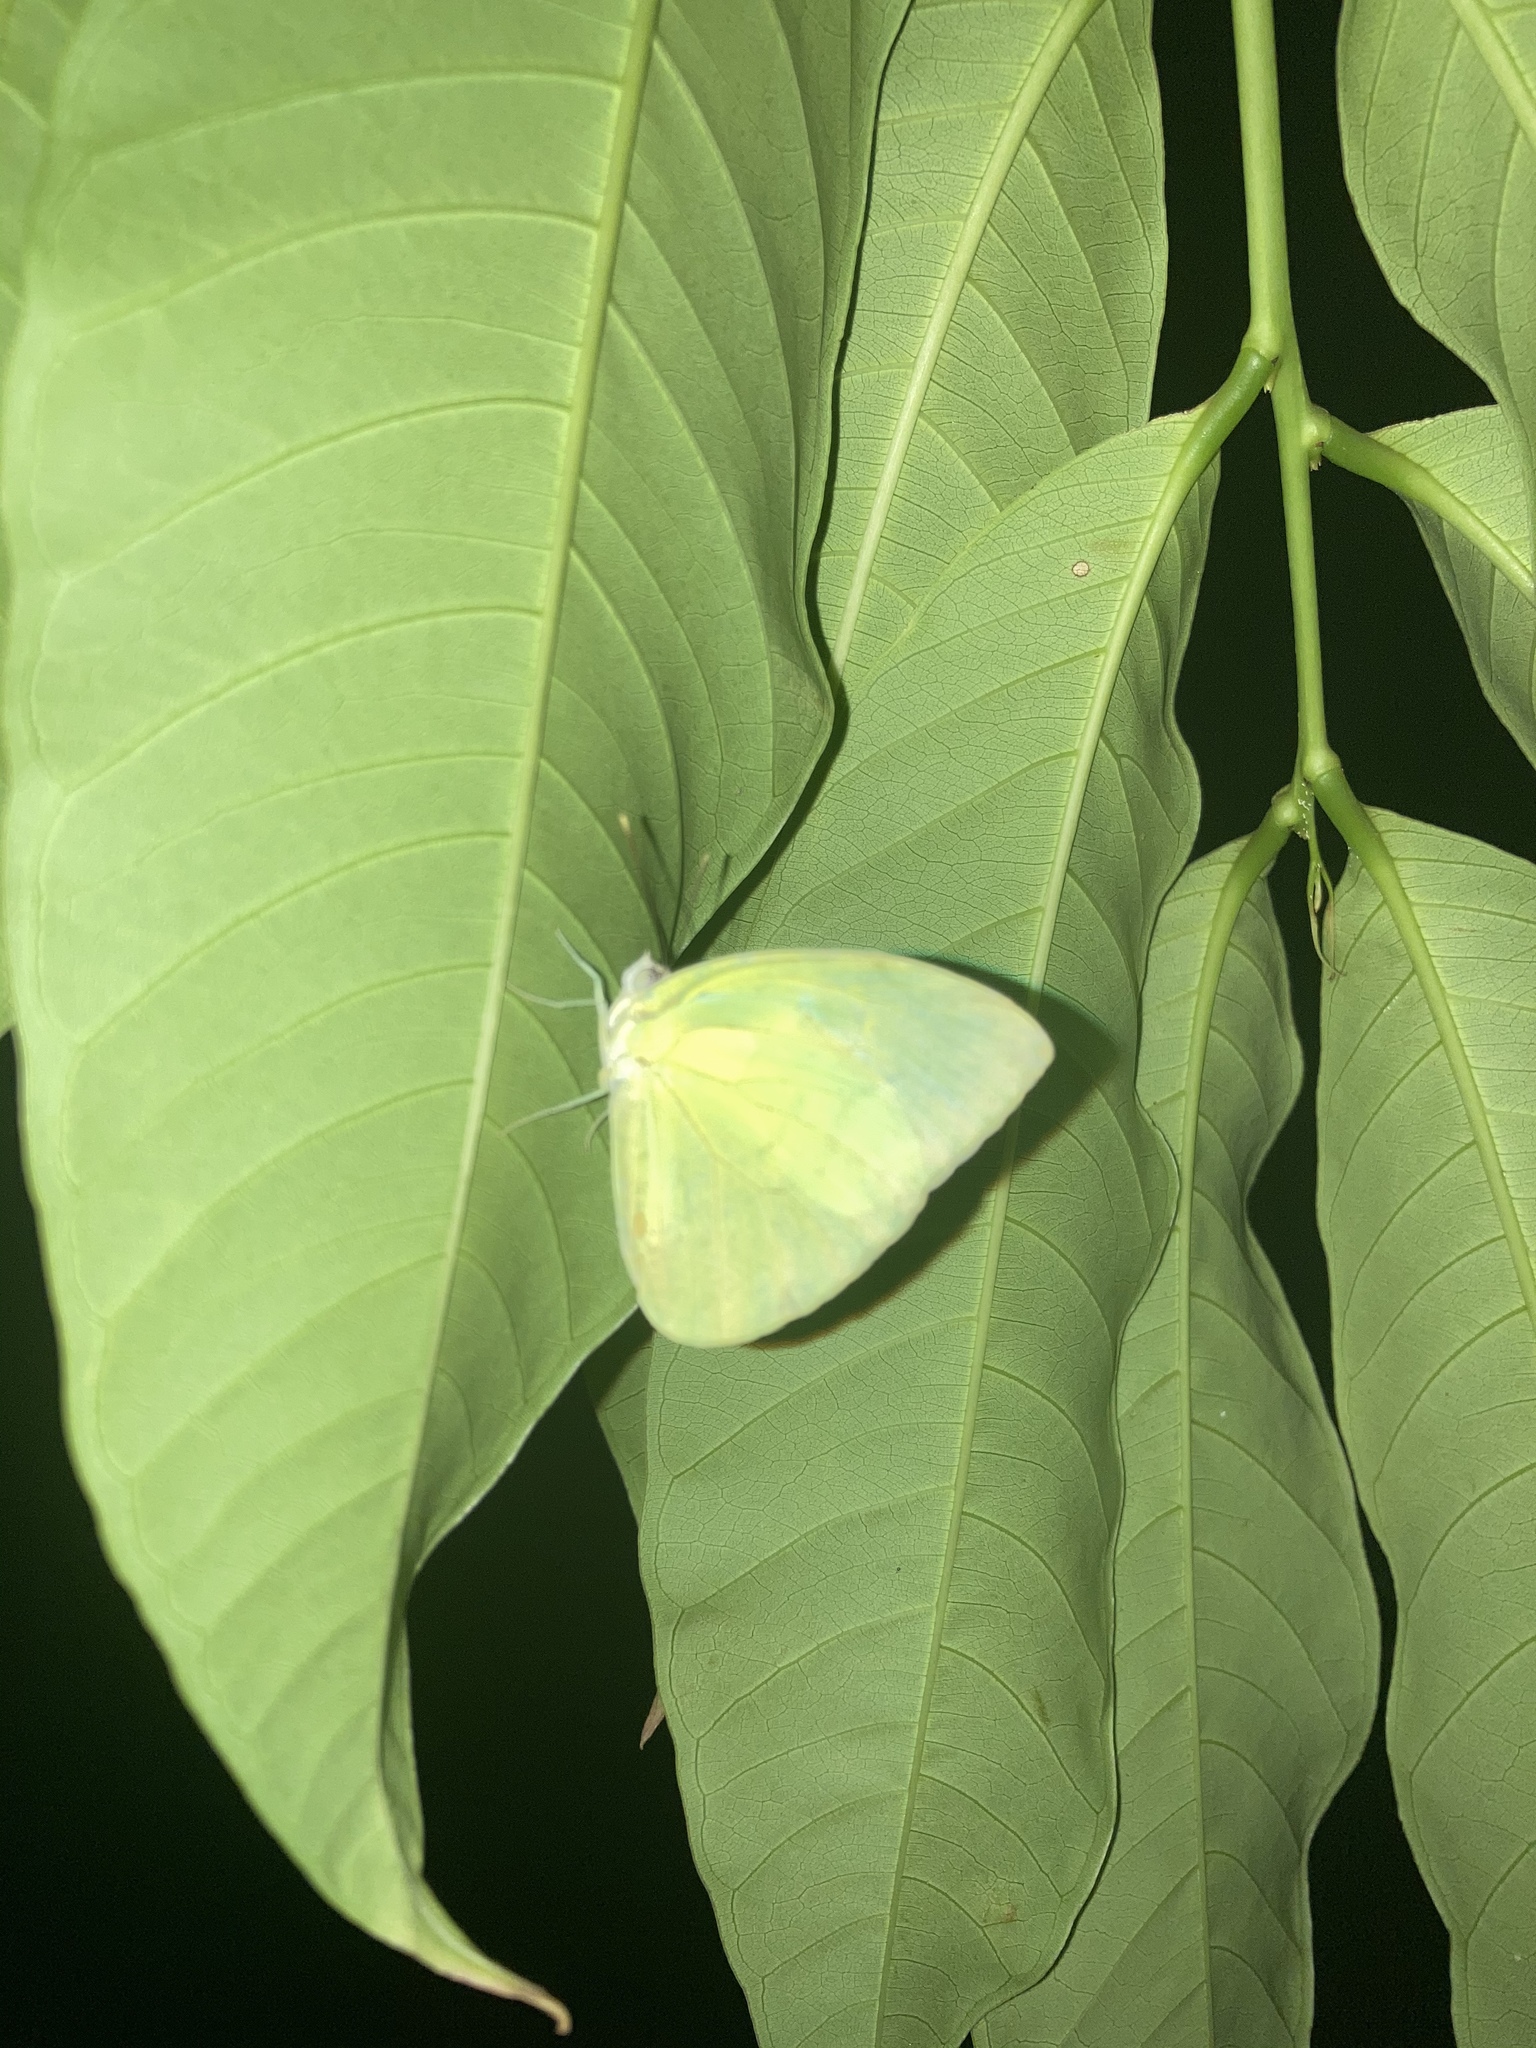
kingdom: Animalia
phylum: Arthropoda
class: Insecta
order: Lepidoptera
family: Pieridae
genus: Aphrissa
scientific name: Aphrissa statira
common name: Statira sulphur
